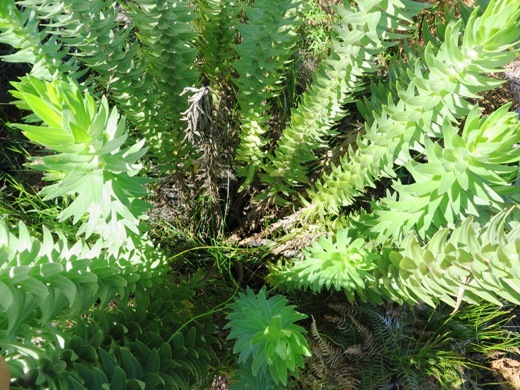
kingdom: Plantae
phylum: Tracheophyta
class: Magnoliopsida
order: Asterales
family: Asteraceae
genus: Osmitopsis
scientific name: Osmitopsis asteriscoides
